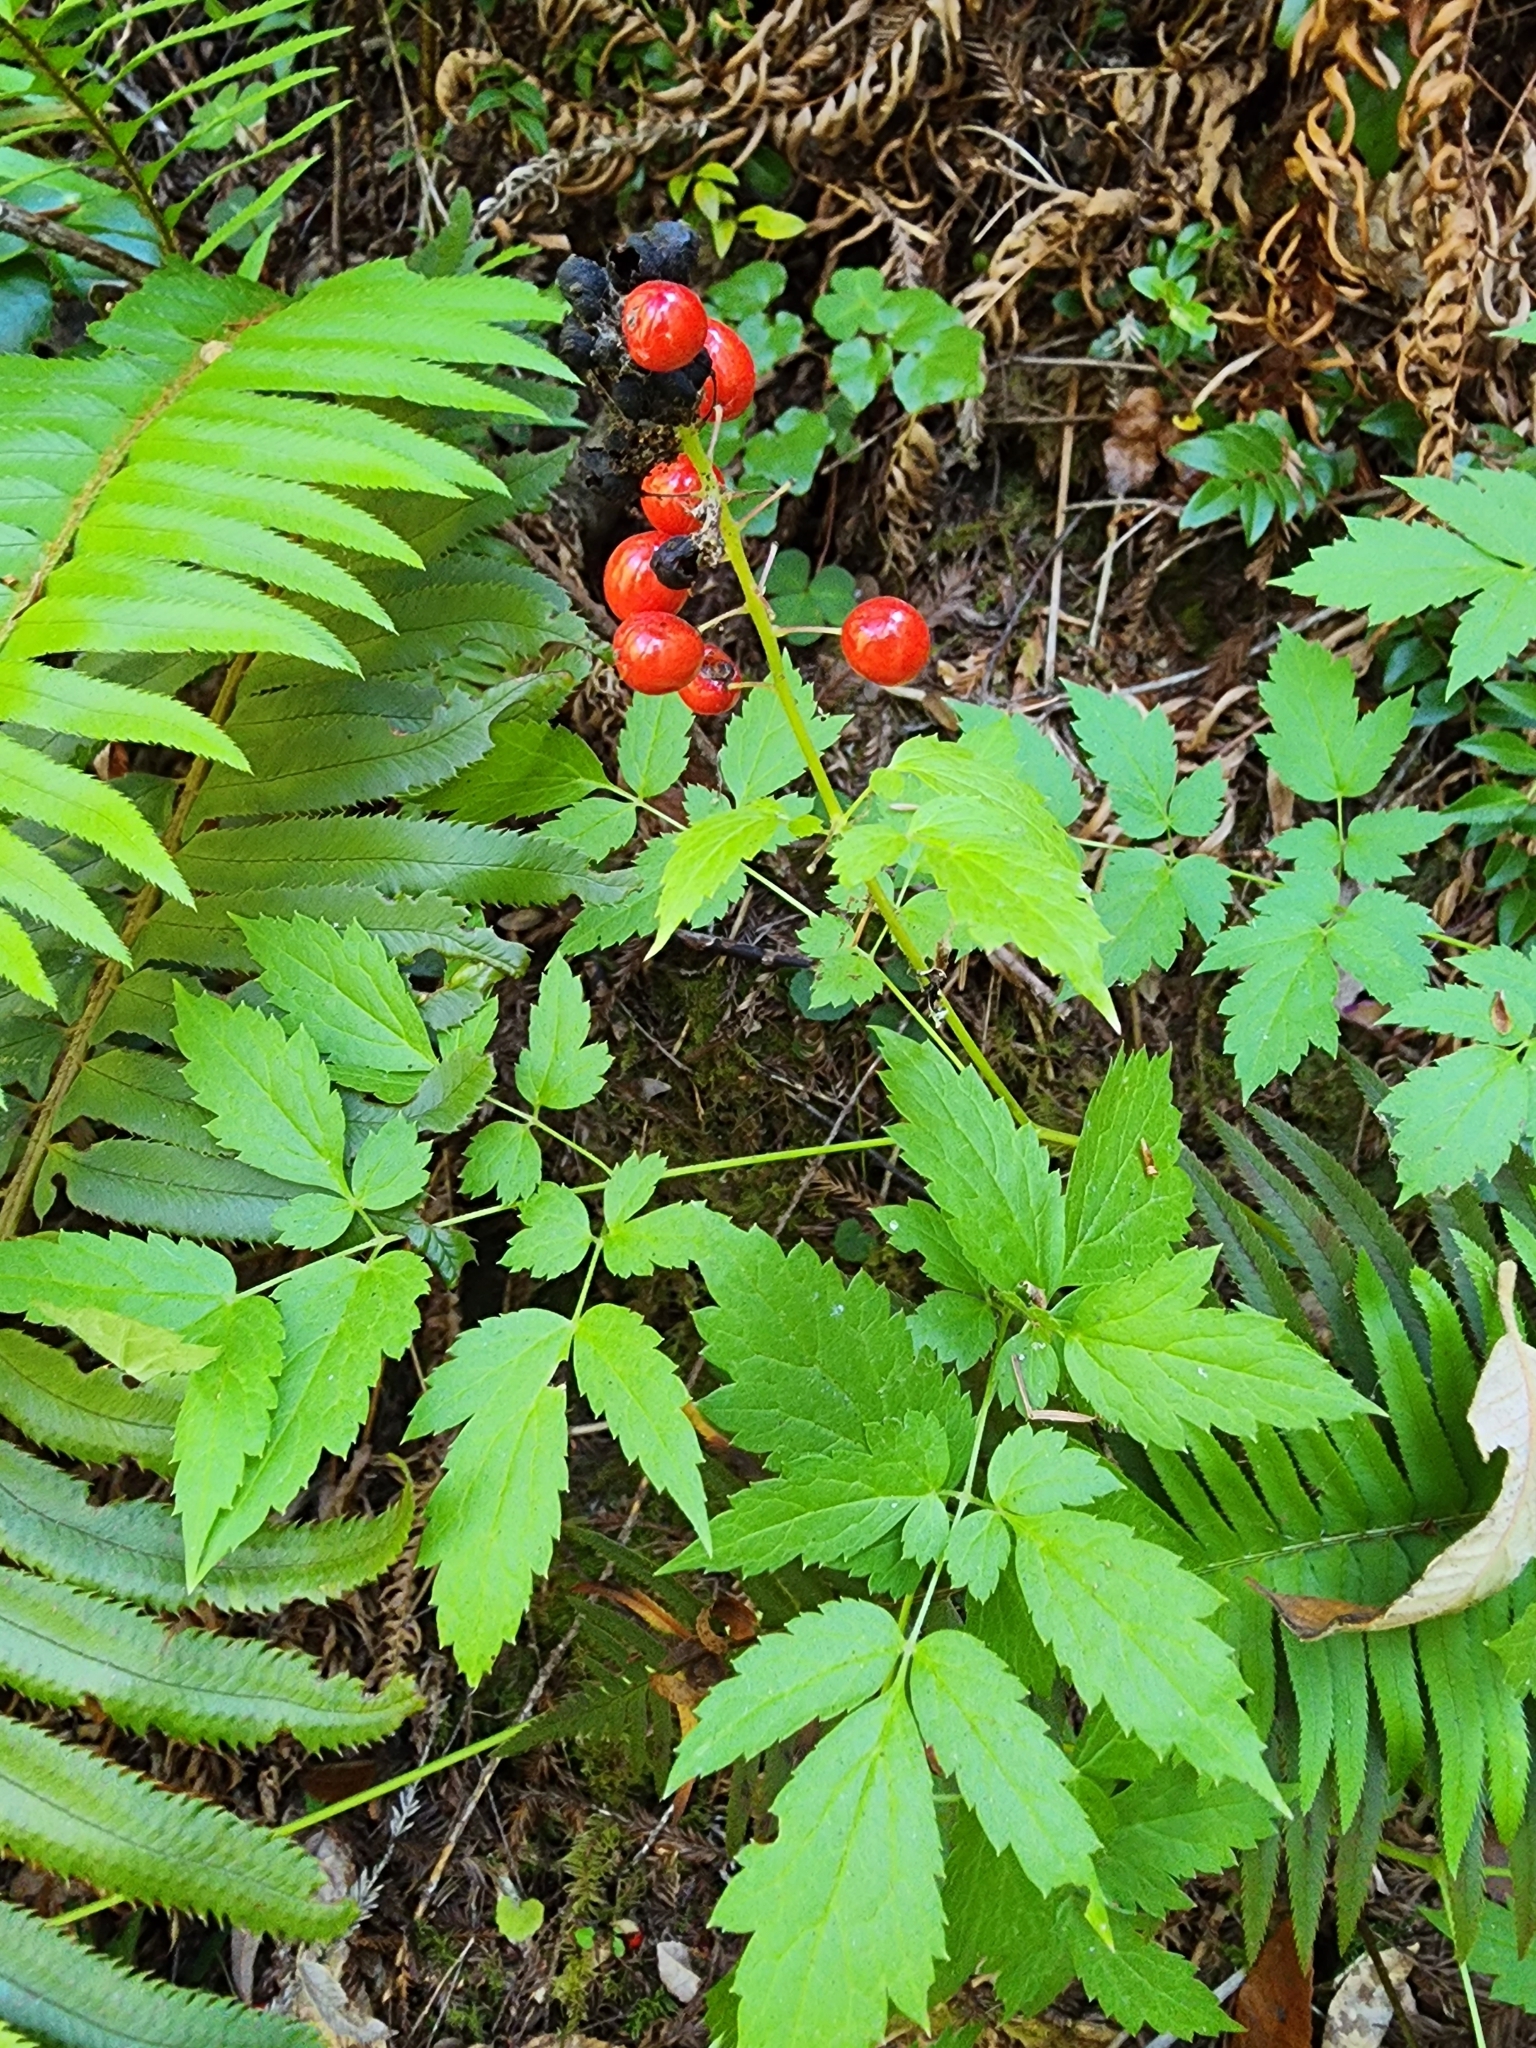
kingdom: Plantae
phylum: Tracheophyta
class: Magnoliopsida
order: Ranunculales
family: Ranunculaceae
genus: Actaea
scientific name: Actaea rubra
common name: Red baneberry
